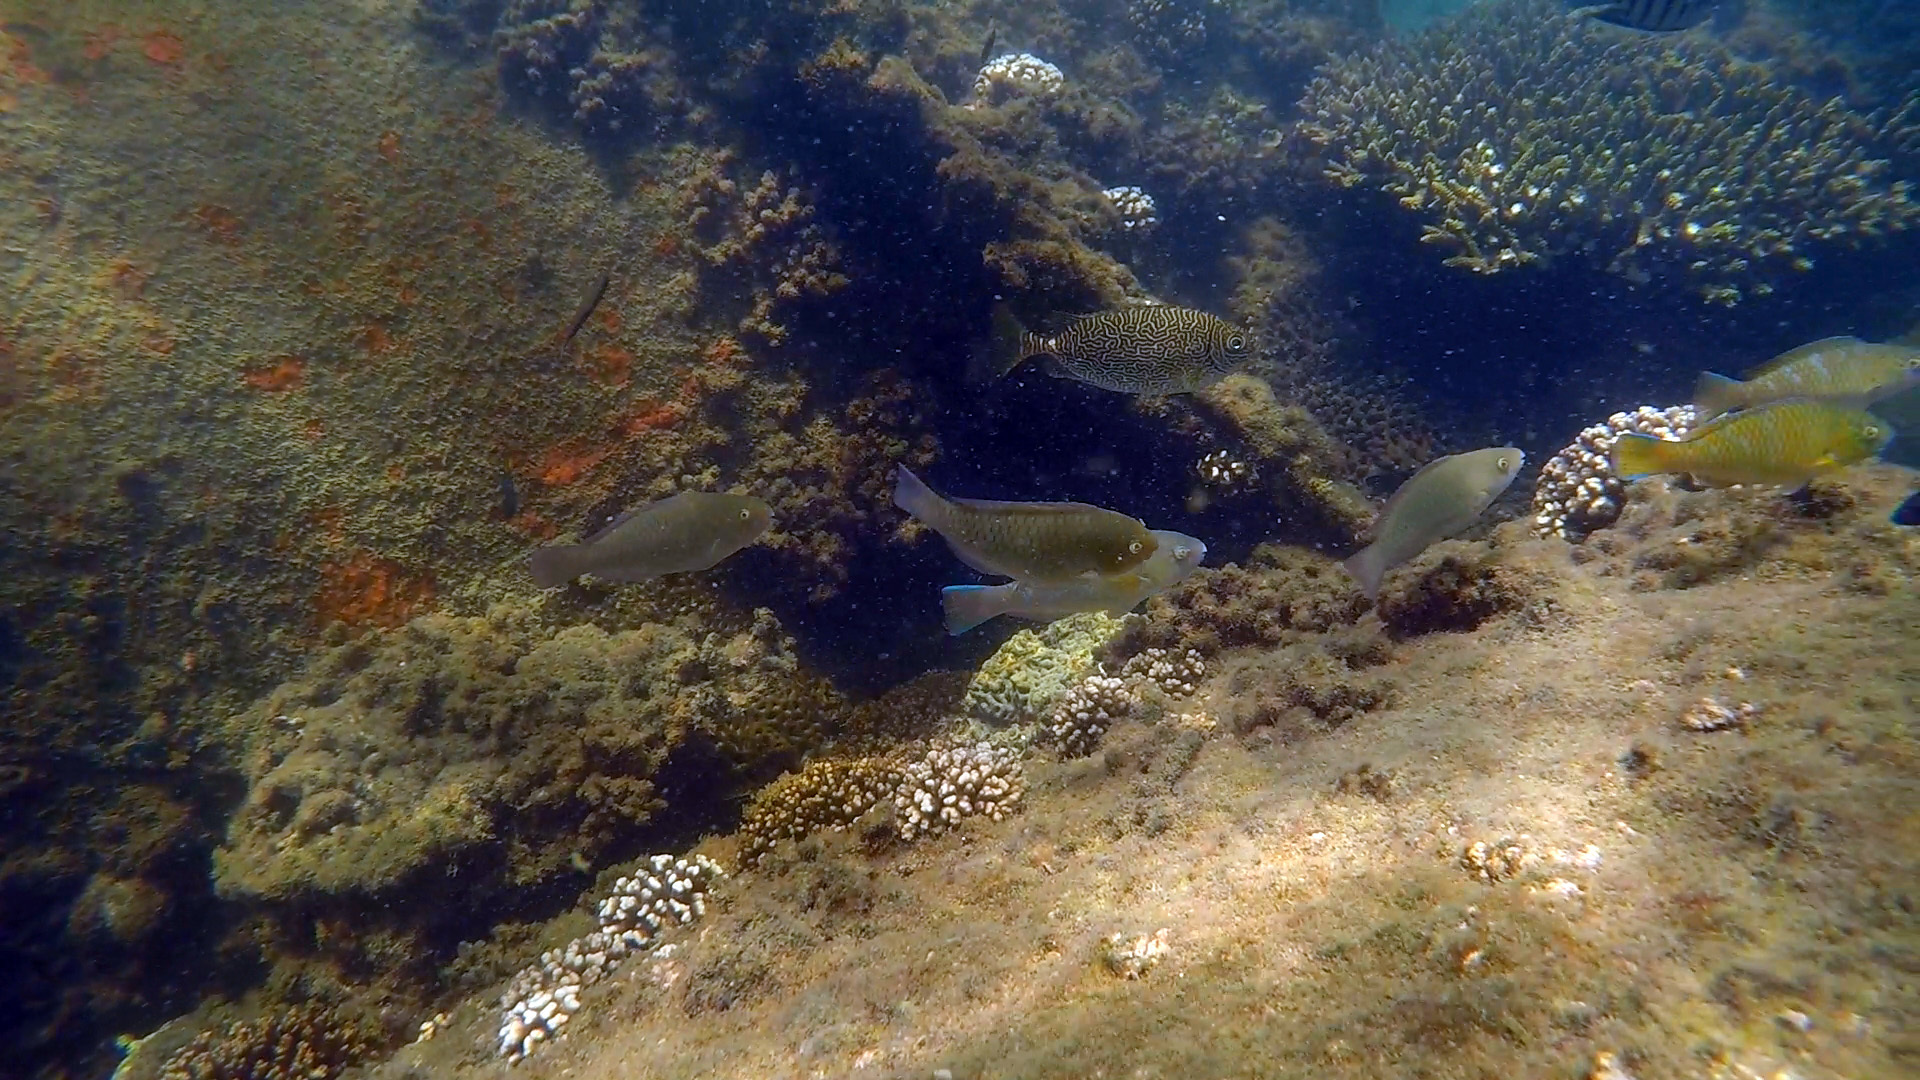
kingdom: Animalia
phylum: Chordata
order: Perciformes
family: Siganidae
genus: Siganus
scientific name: Siganus spinus
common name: Scribbled rabbitfish
